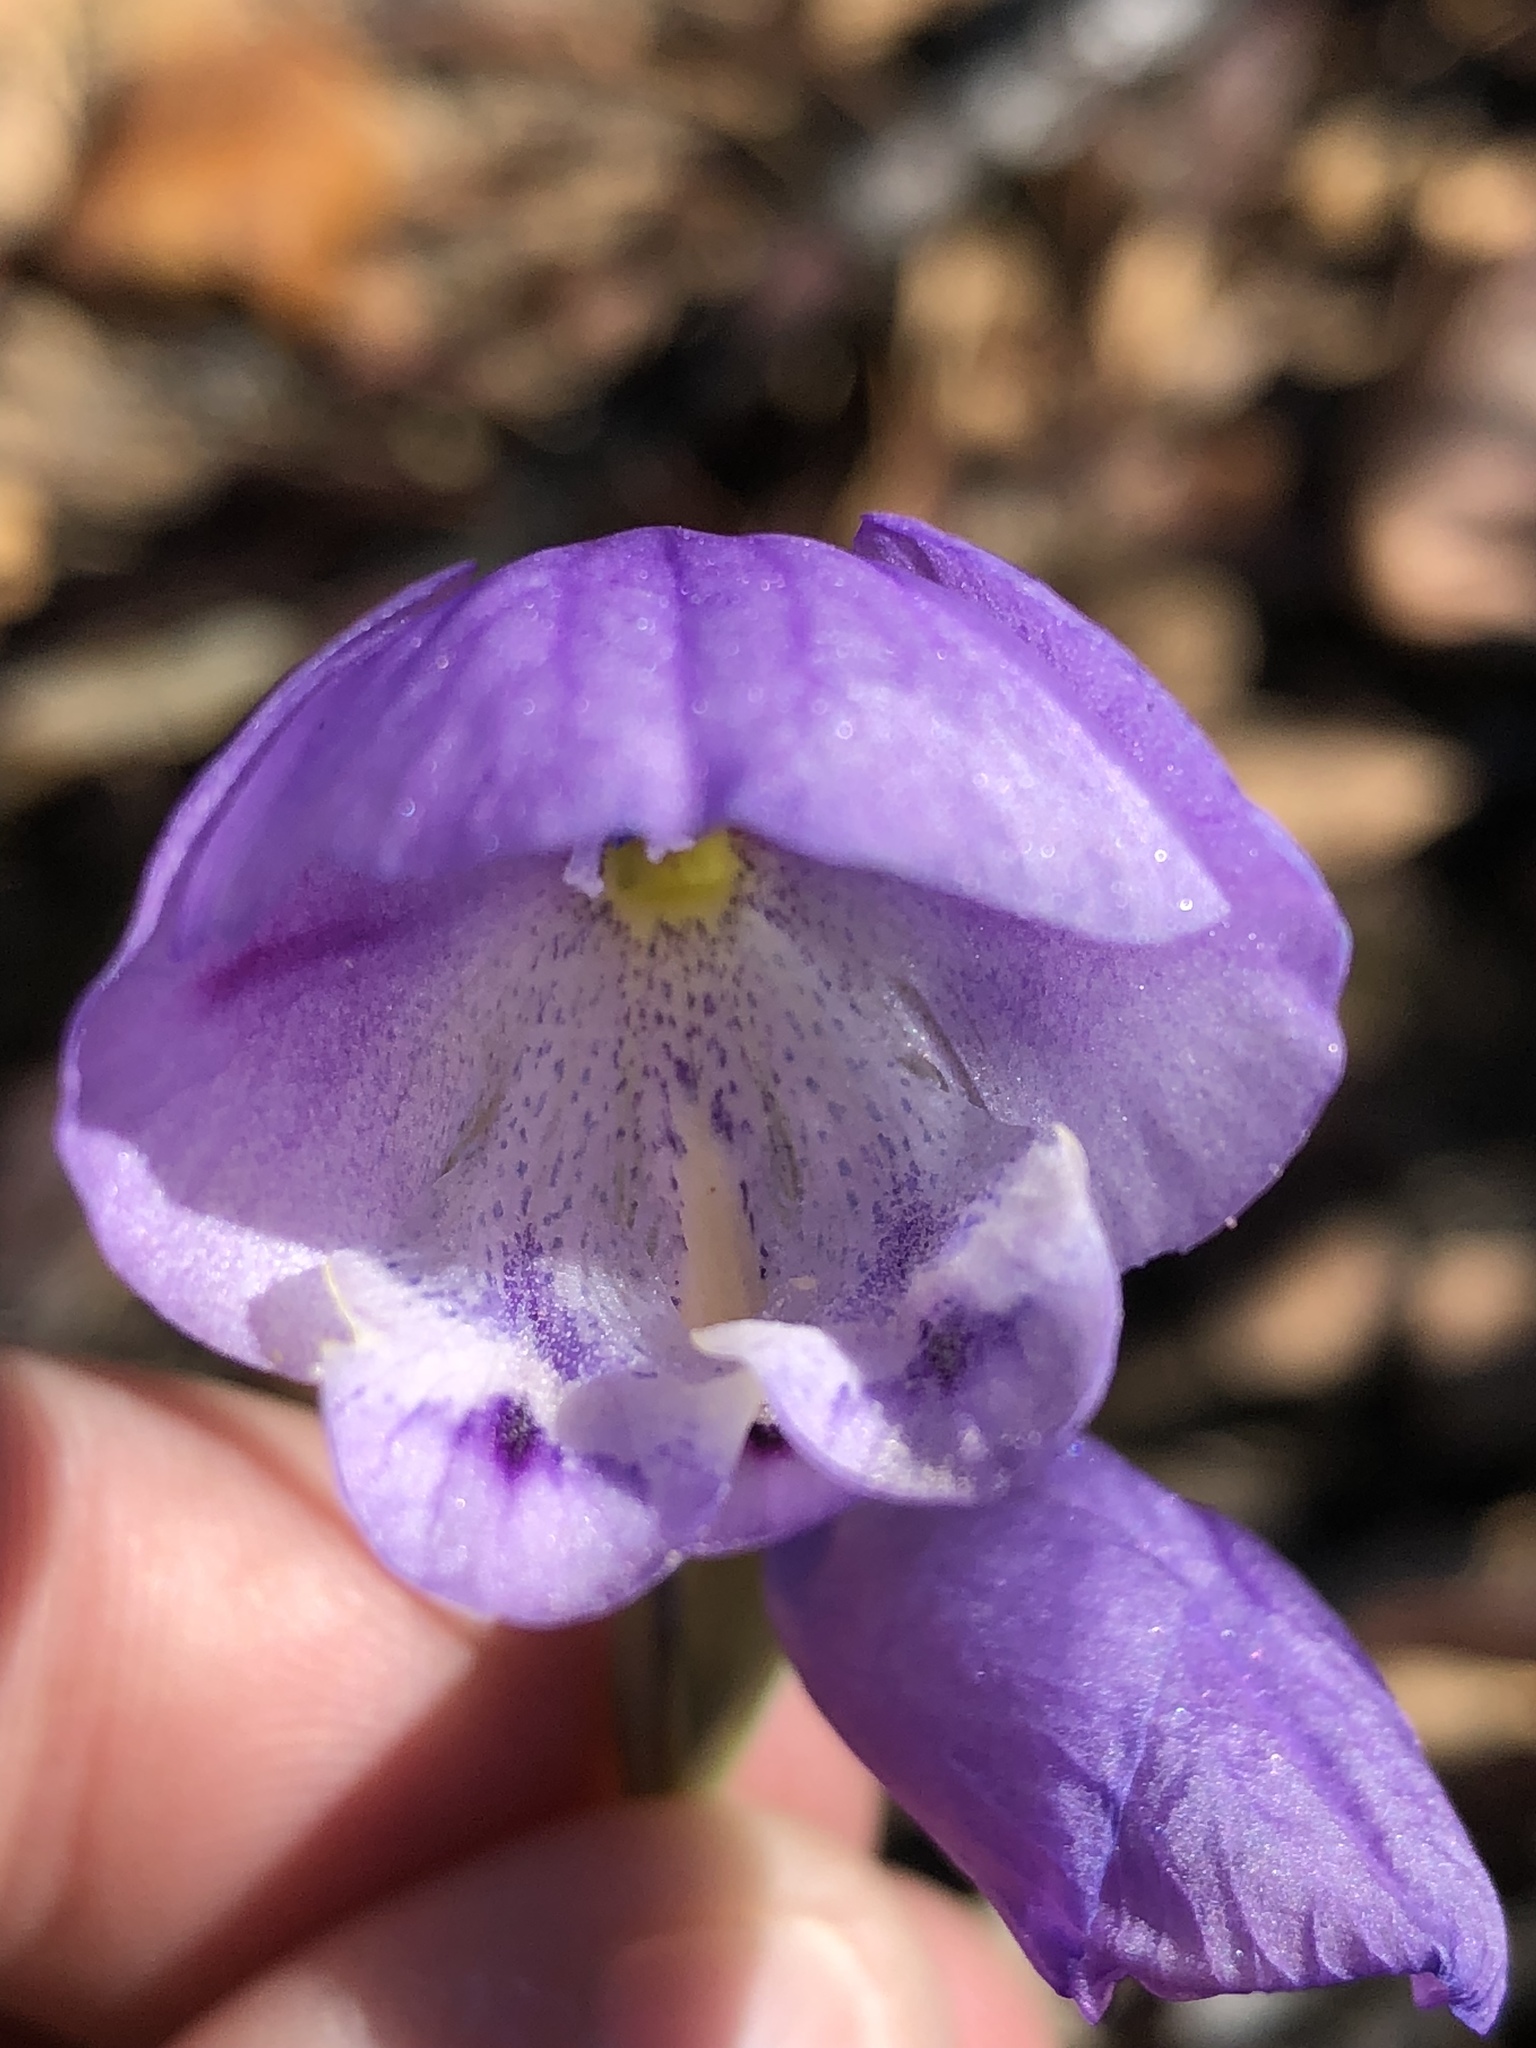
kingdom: Plantae
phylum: Tracheophyta
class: Liliopsida
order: Asparagales
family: Iridaceae
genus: Gladiolus
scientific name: Gladiolus rogersii
